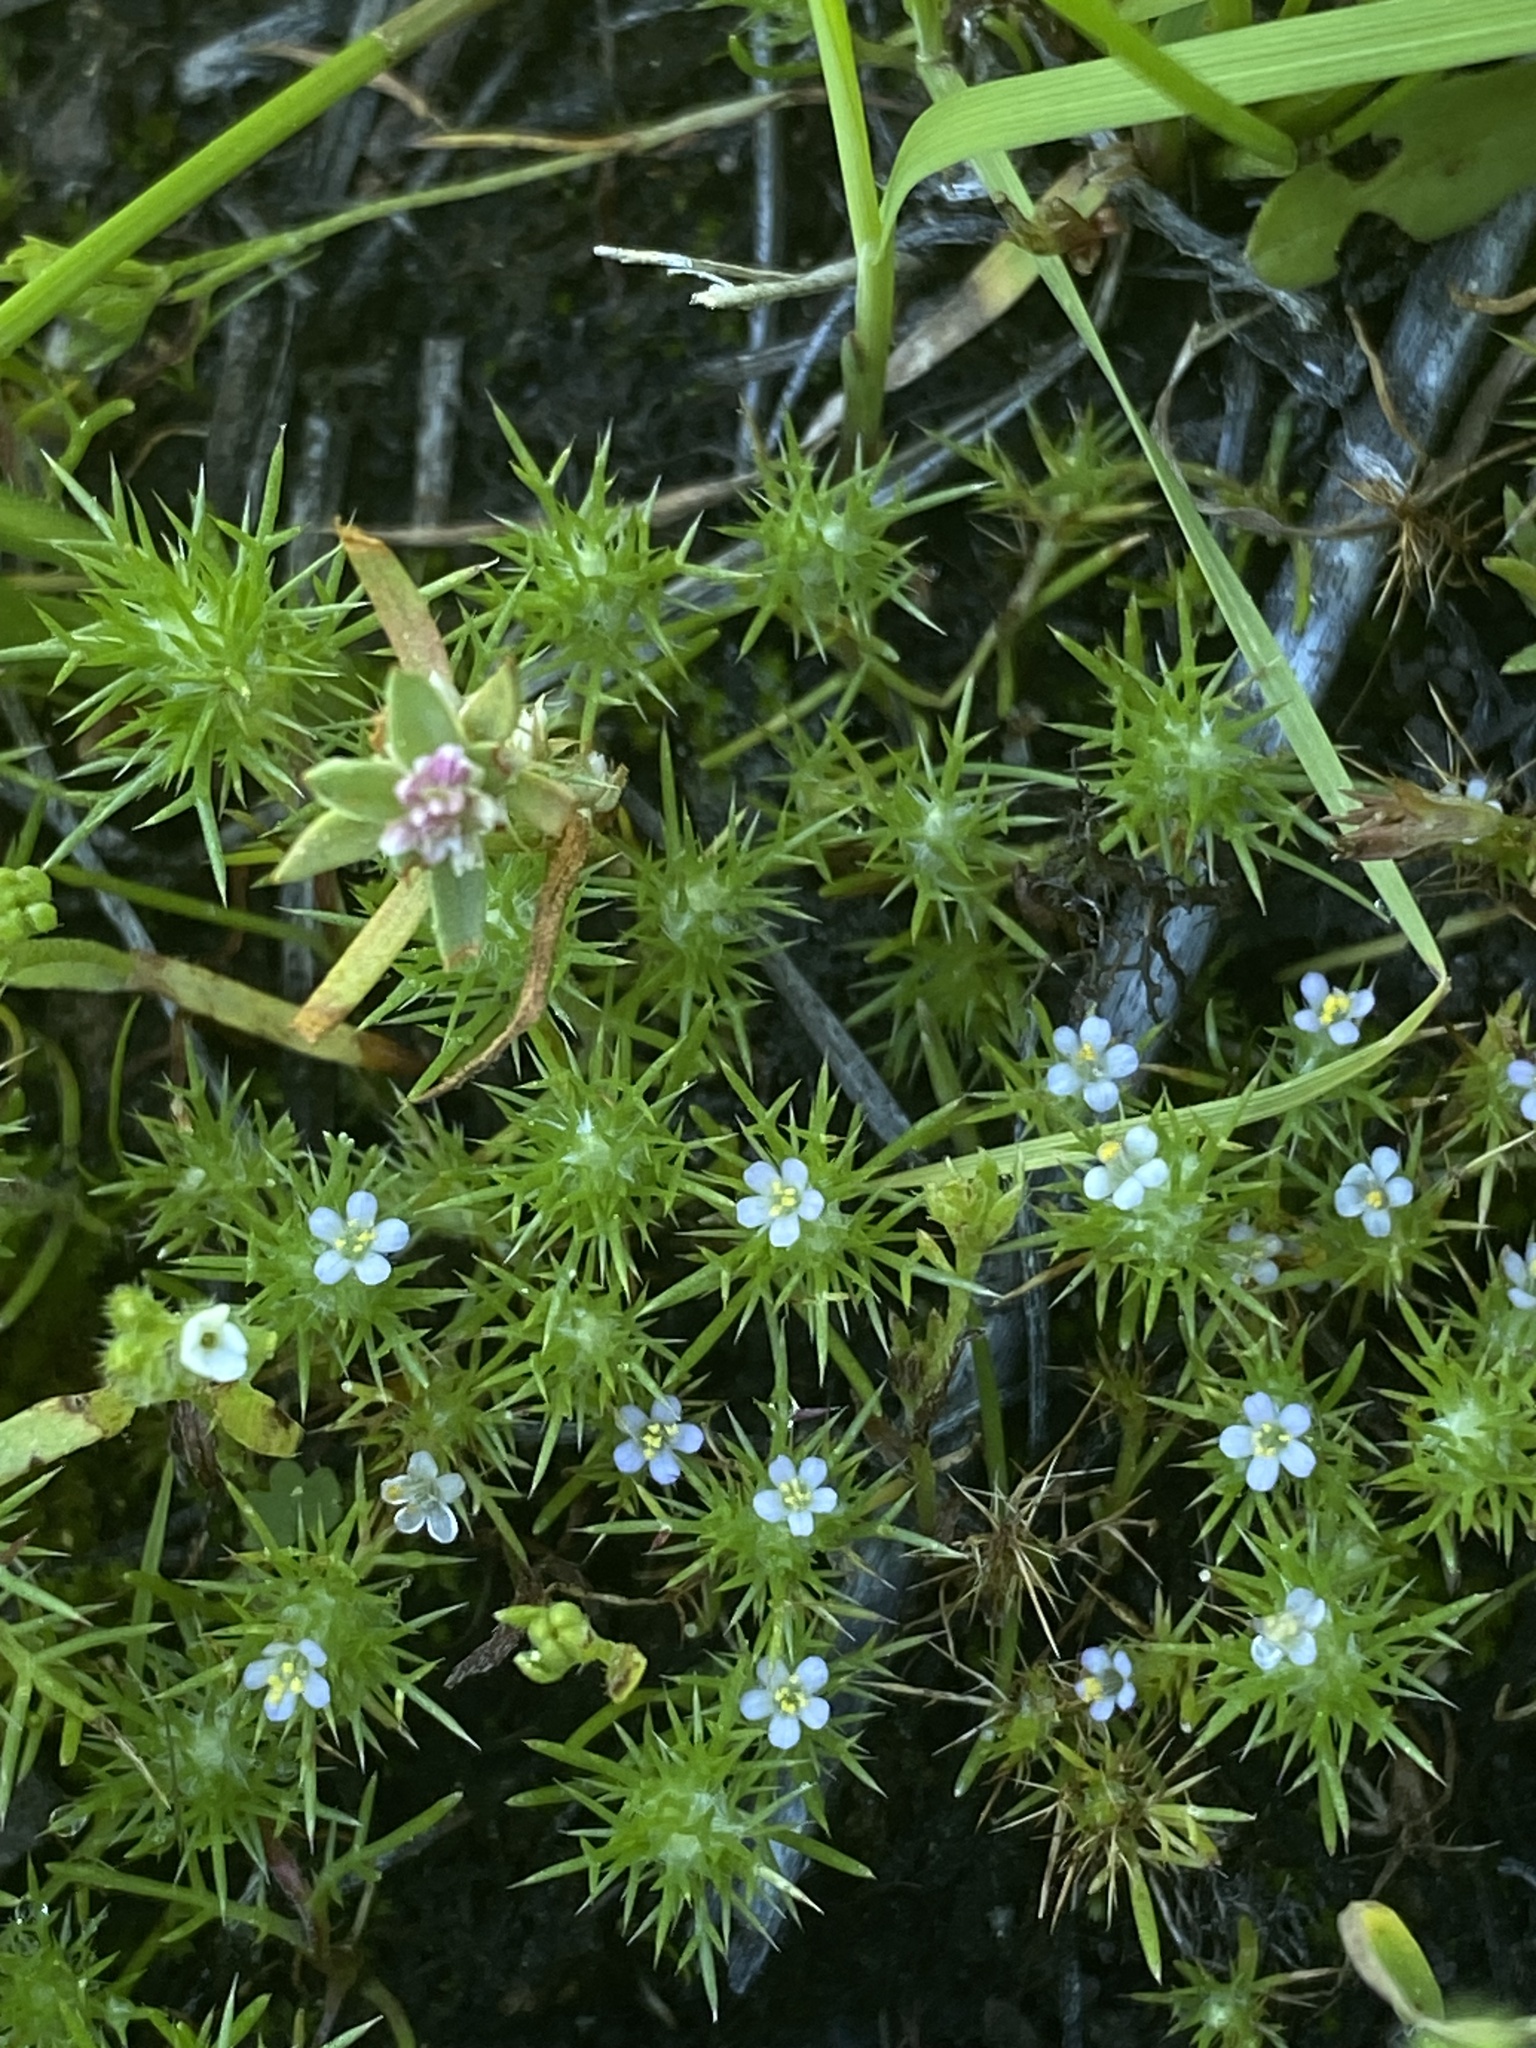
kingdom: Plantae
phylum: Tracheophyta
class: Magnoliopsida
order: Ericales
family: Polemoniaceae
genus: Navarretia
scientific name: Navarretia intertexta
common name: Needle-leaved navarretia
